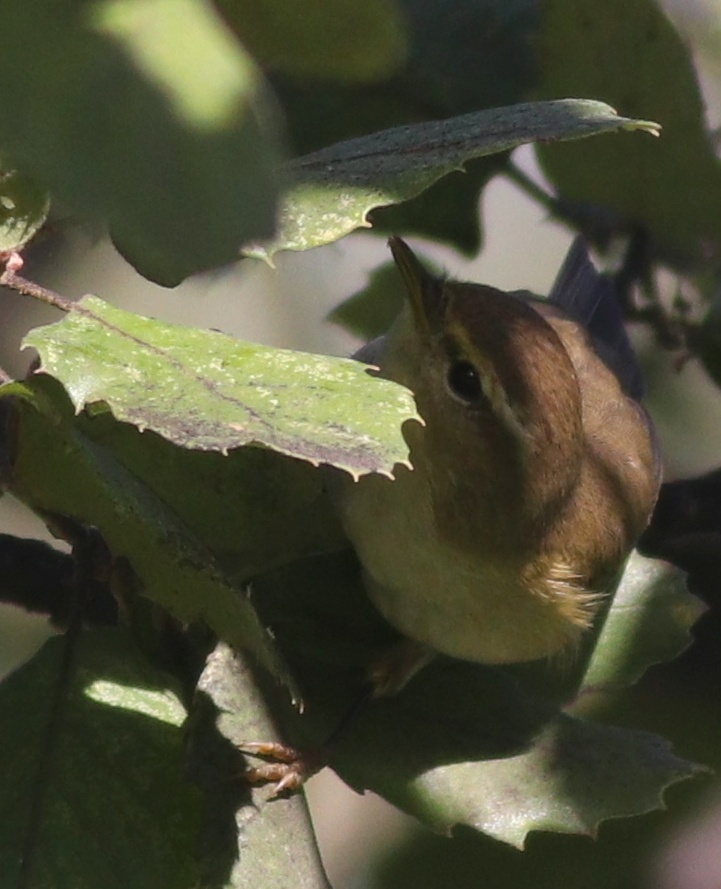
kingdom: Animalia
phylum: Chordata
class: Aves
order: Passeriformes
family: Phylloscopidae
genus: Phylloscopus
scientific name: Phylloscopus collybita
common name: Common chiffchaff
